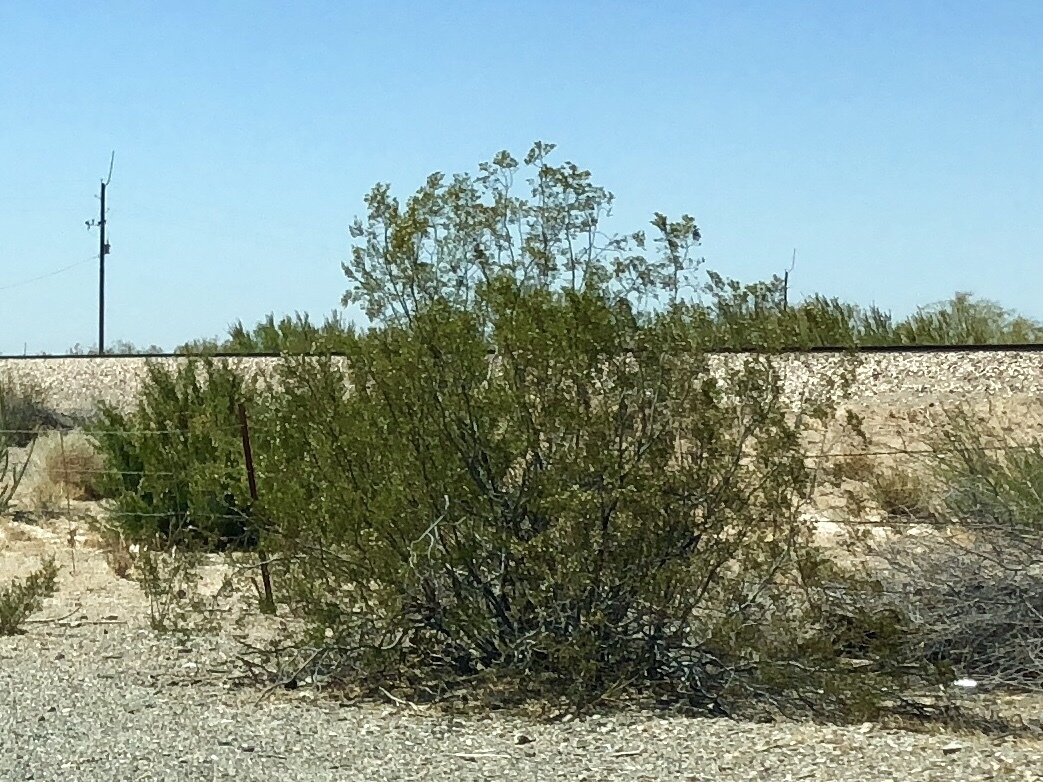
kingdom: Plantae
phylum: Tracheophyta
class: Magnoliopsida
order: Zygophyllales
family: Zygophyllaceae
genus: Larrea
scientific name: Larrea tridentata
